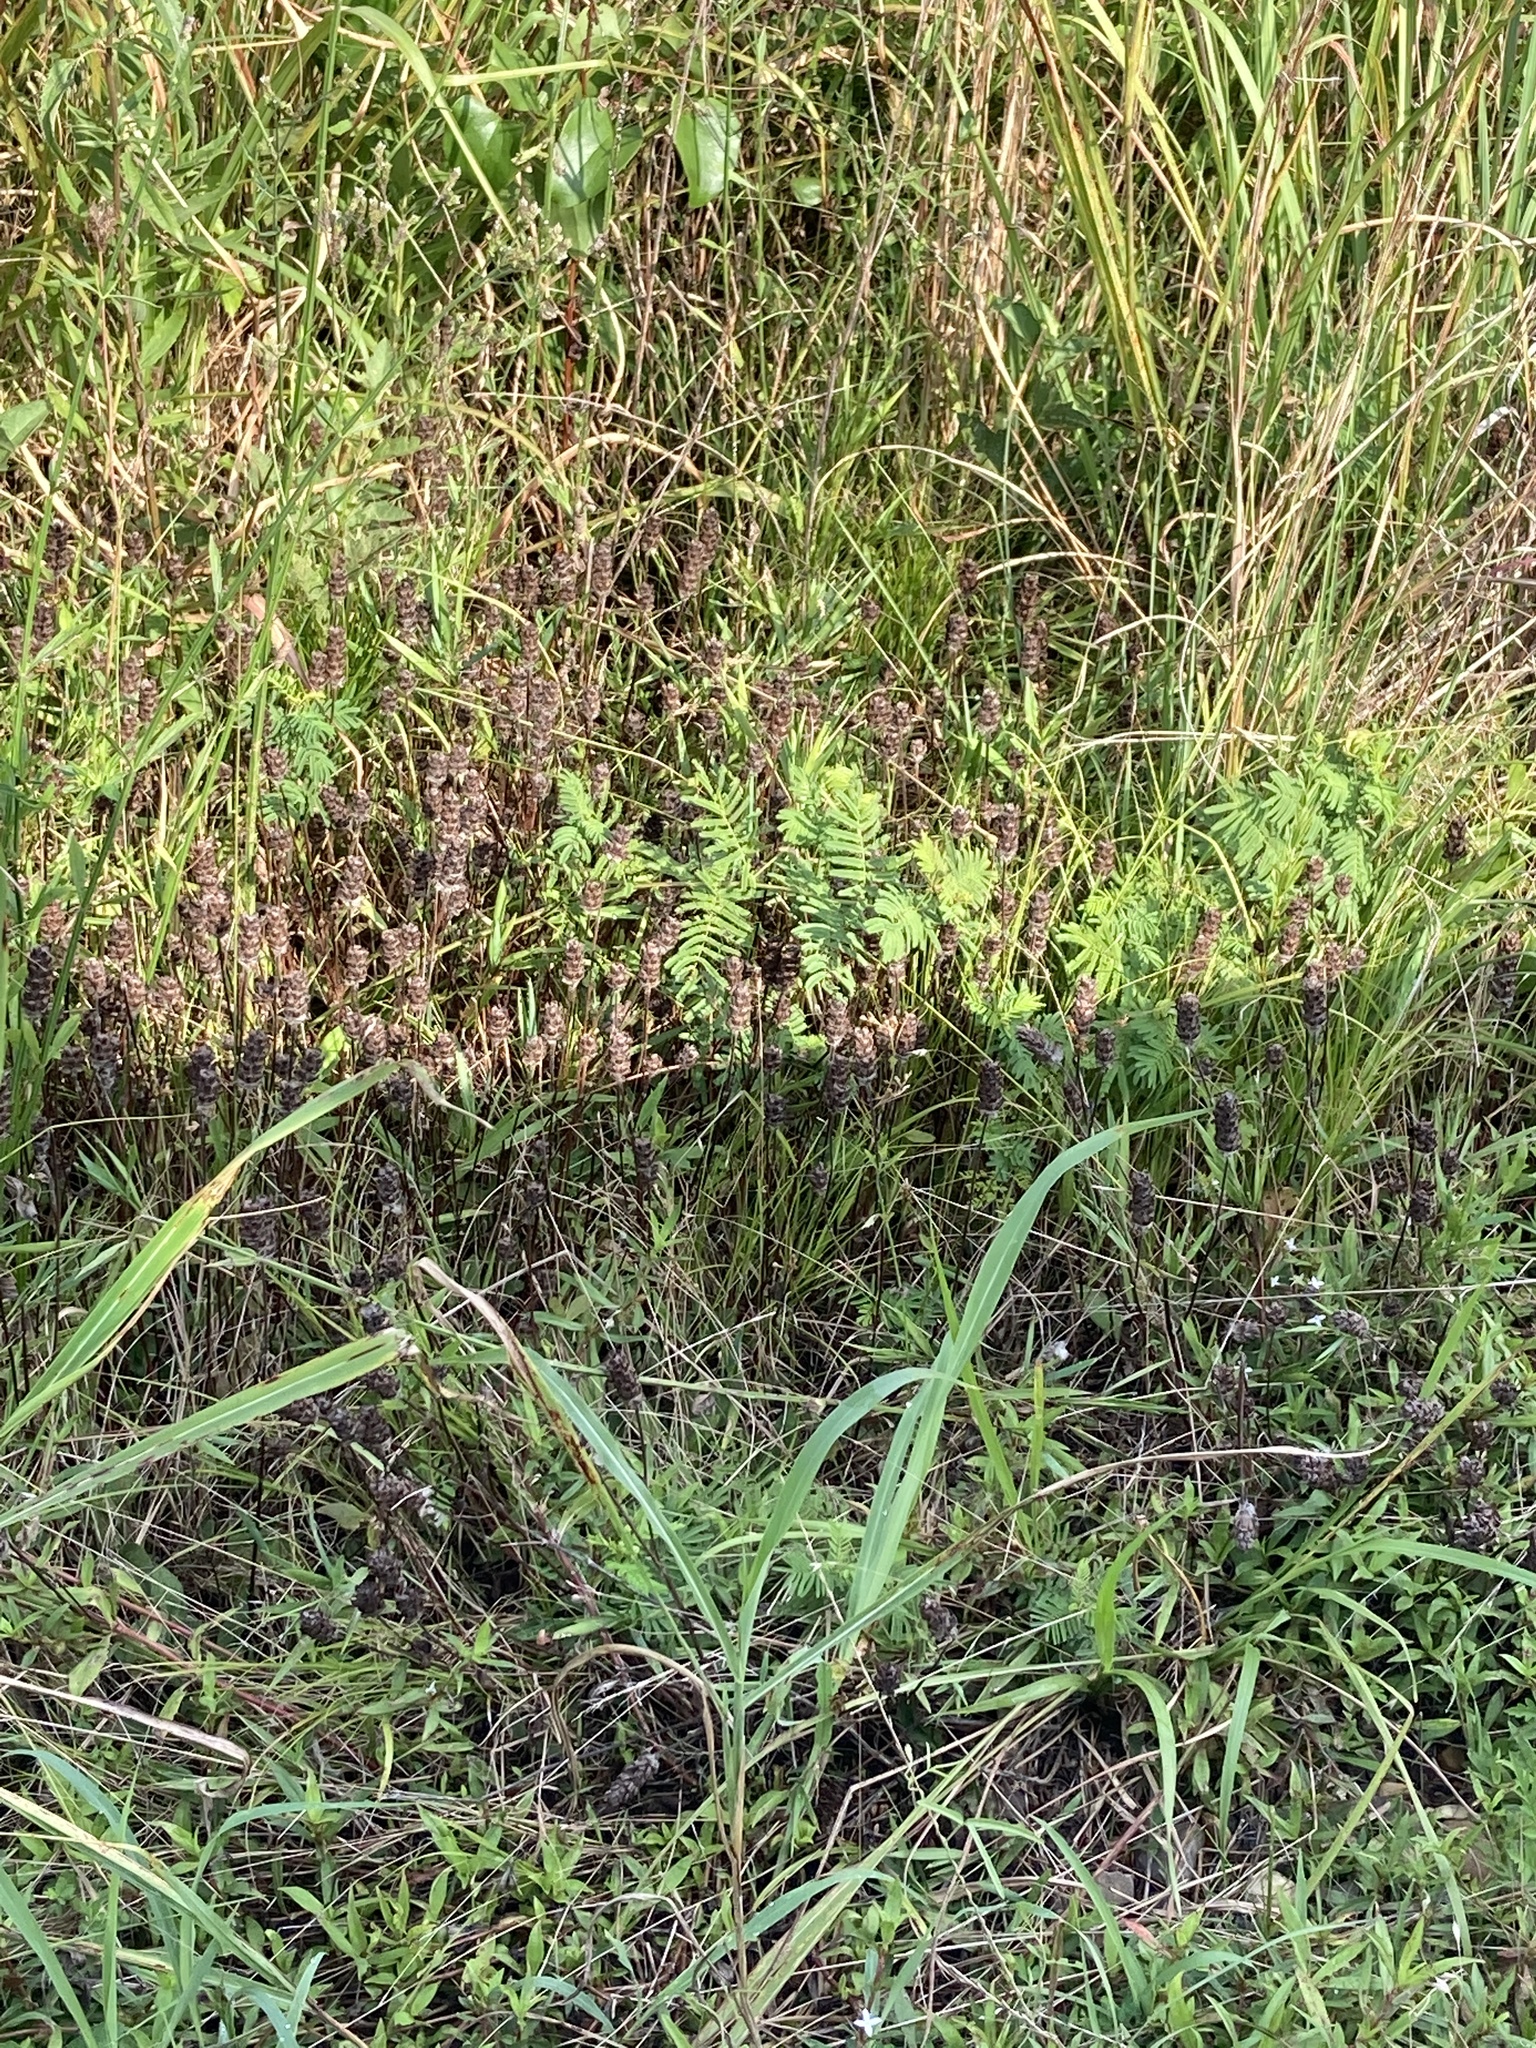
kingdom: Plantae
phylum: Tracheophyta
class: Magnoliopsida
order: Lamiales
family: Lamiaceae
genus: Prunella
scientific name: Prunella vulgaris
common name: Heal-all
